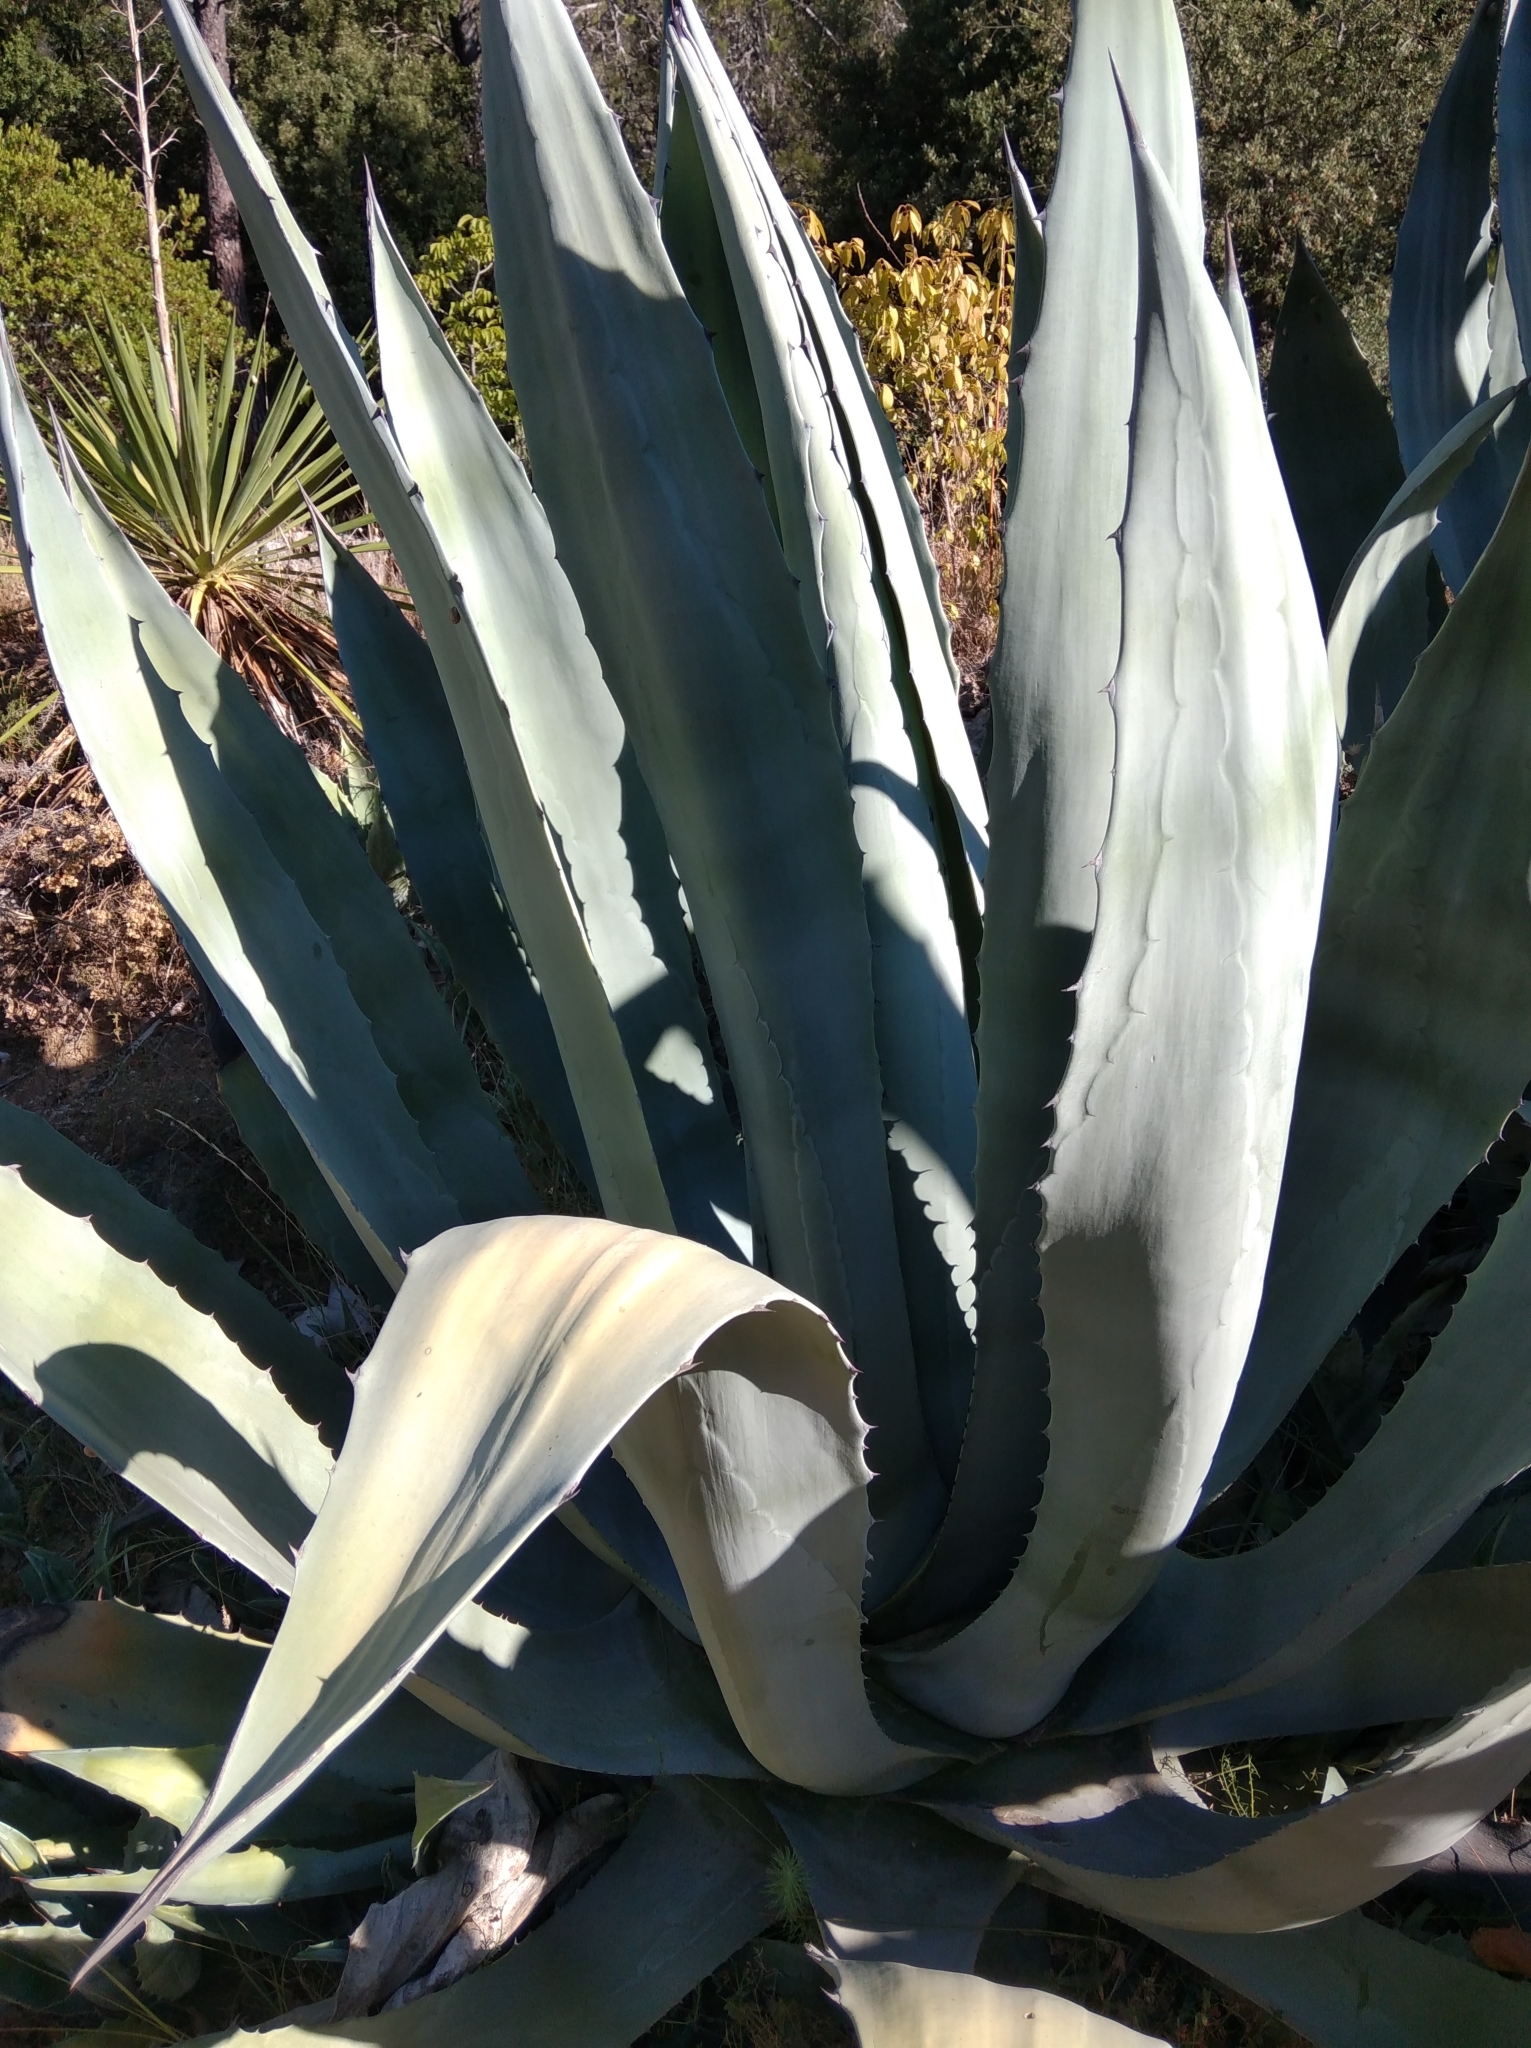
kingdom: Plantae
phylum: Tracheophyta
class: Liliopsida
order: Asparagales
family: Asparagaceae
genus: Agave
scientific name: Agave americana
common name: Centuryplant
